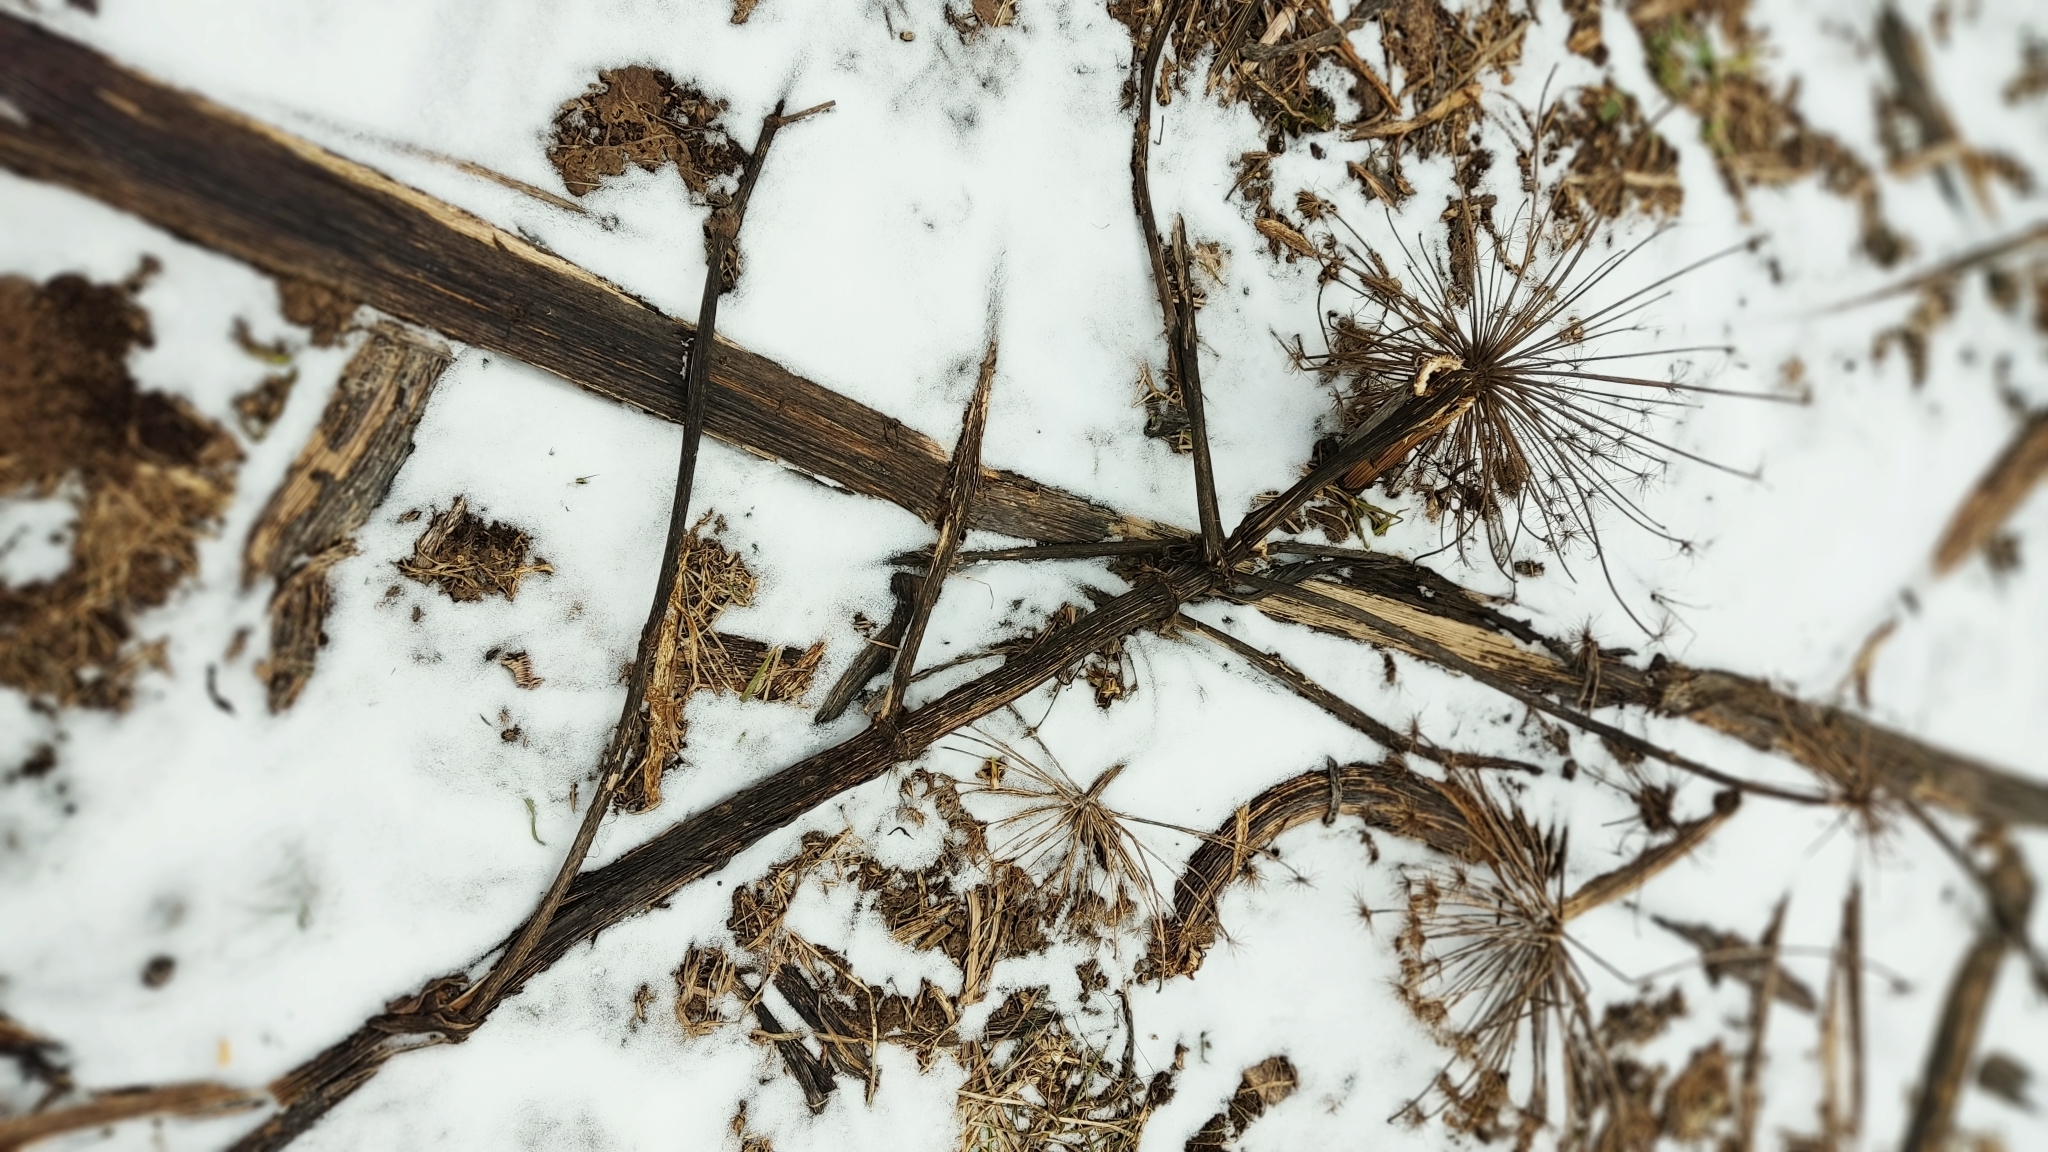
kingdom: Plantae
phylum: Tracheophyta
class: Magnoliopsida
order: Apiales
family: Apiaceae
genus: Heracleum
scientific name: Heracleum sosnowskyi
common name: Sosnowsky's hogweed
